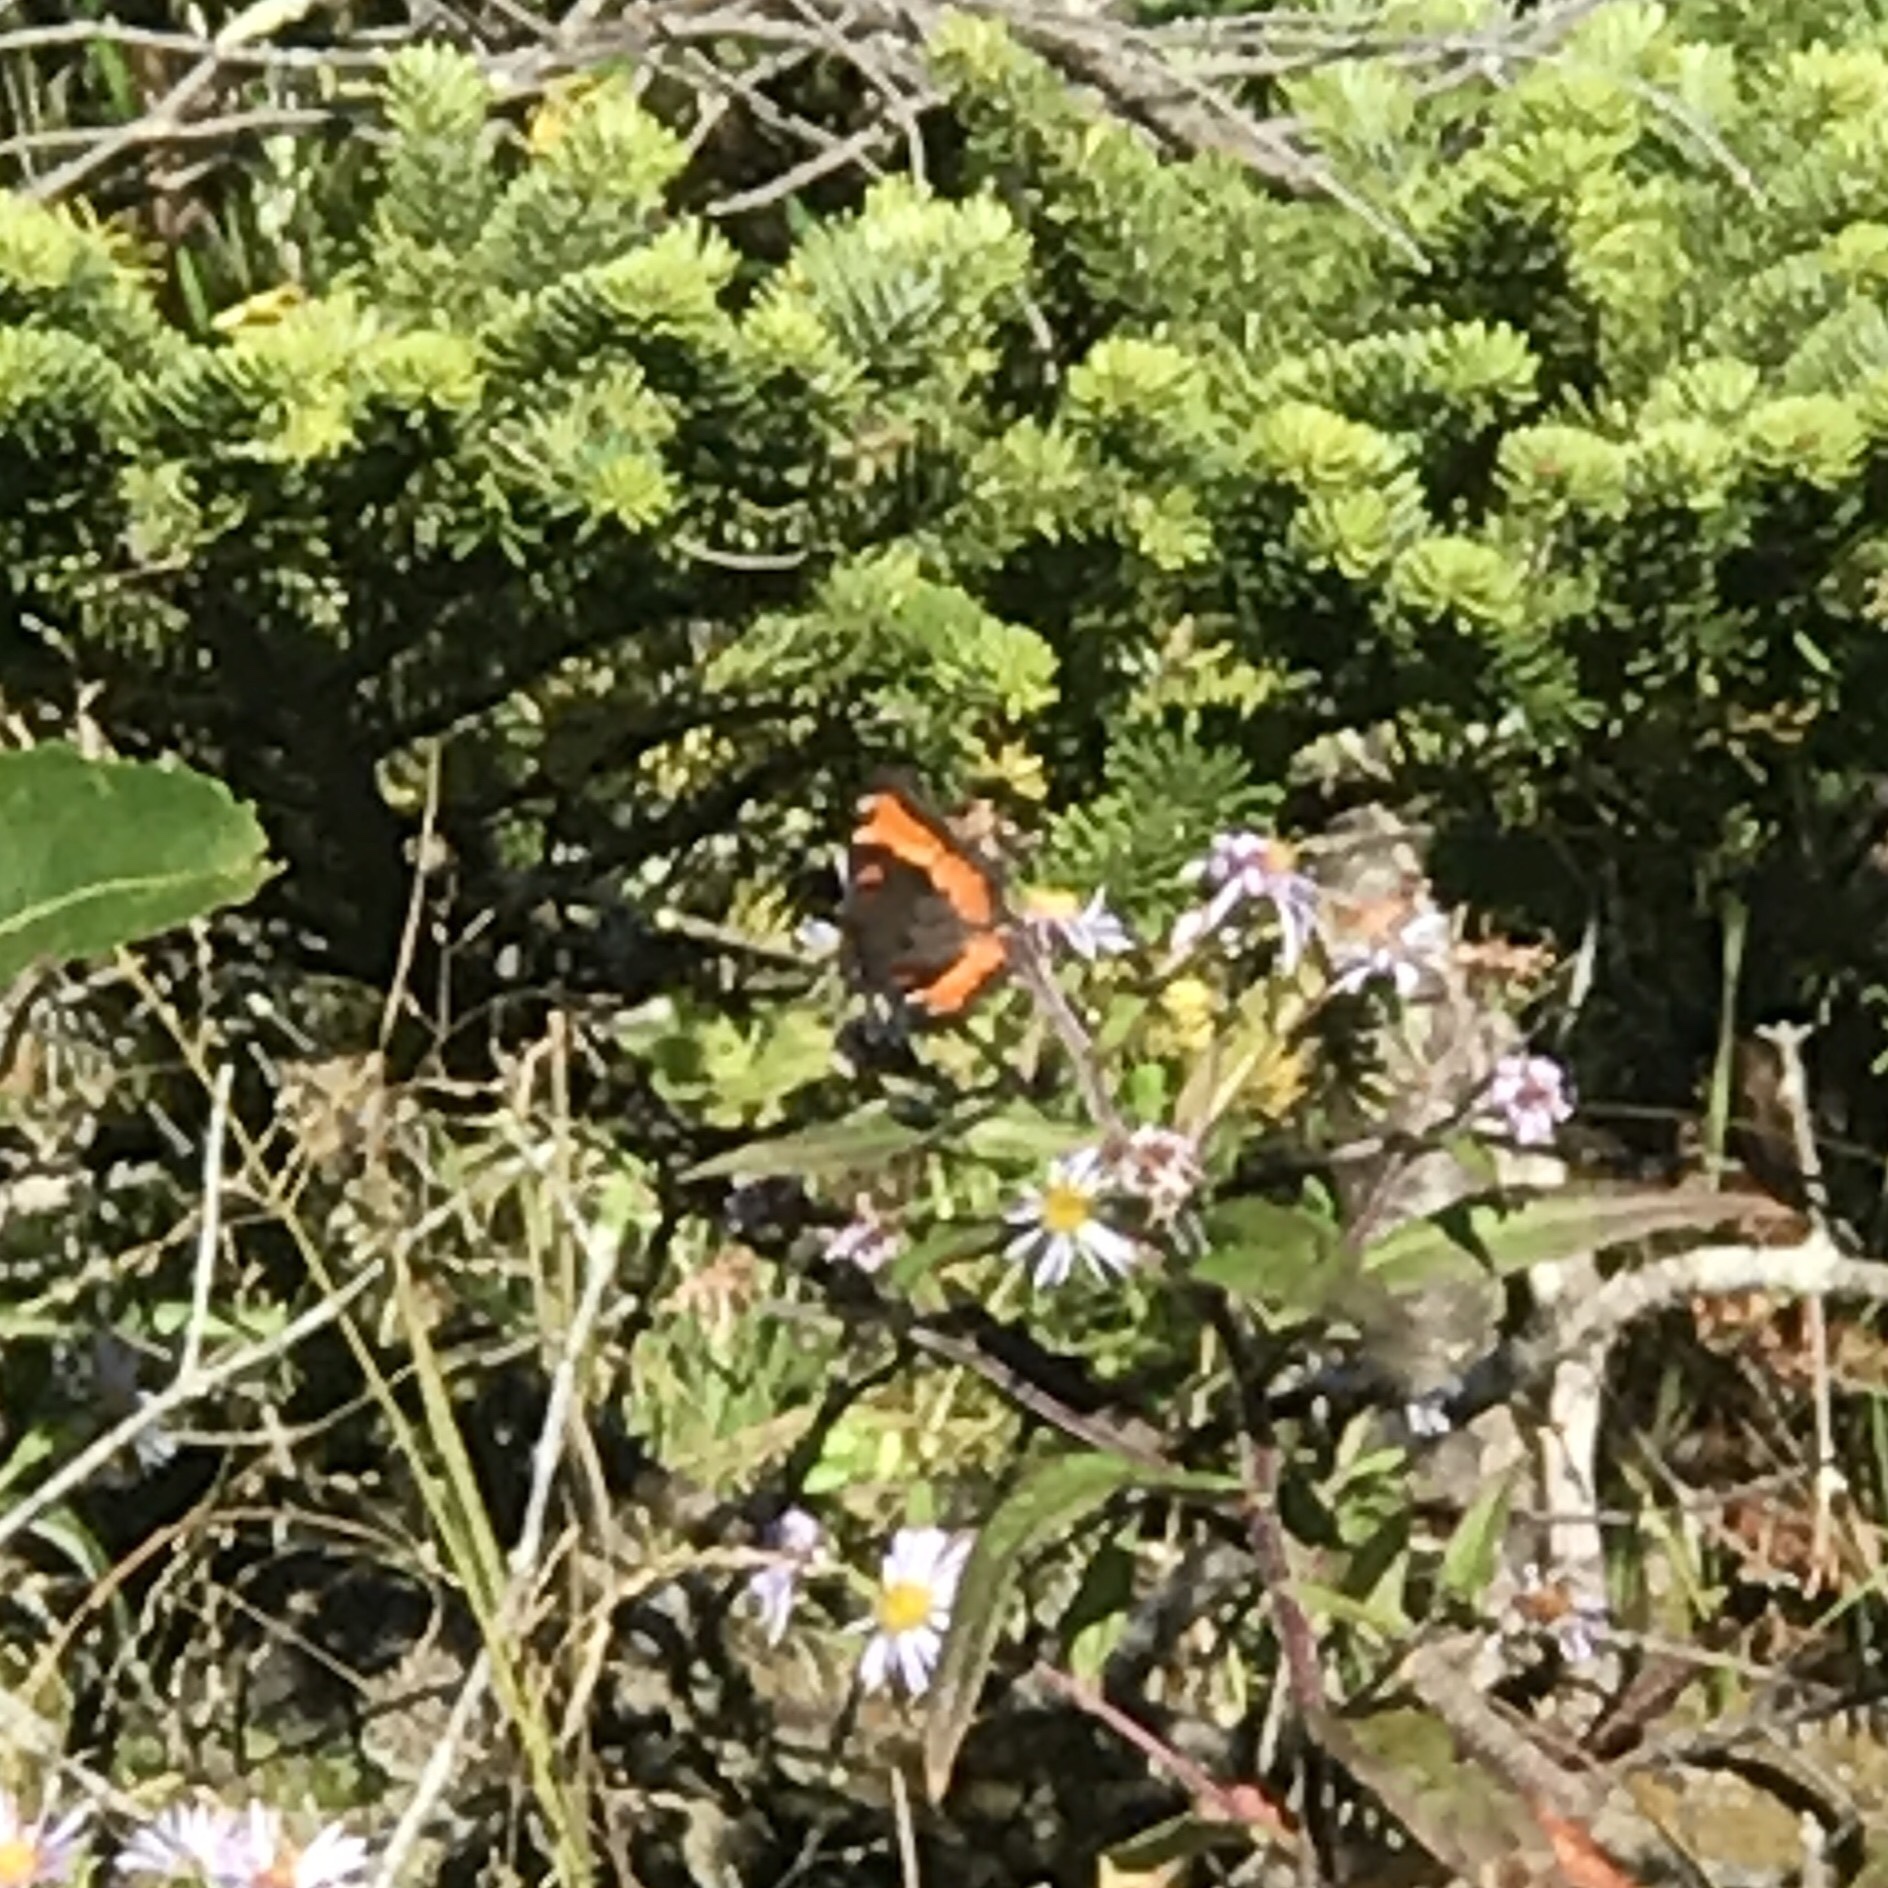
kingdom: Animalia
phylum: Arthropoda
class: Insecta
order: Lepidoptera
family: Nymphalidae
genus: Aglais
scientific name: Aglais milberti
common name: Milbert's tortoiseshell
